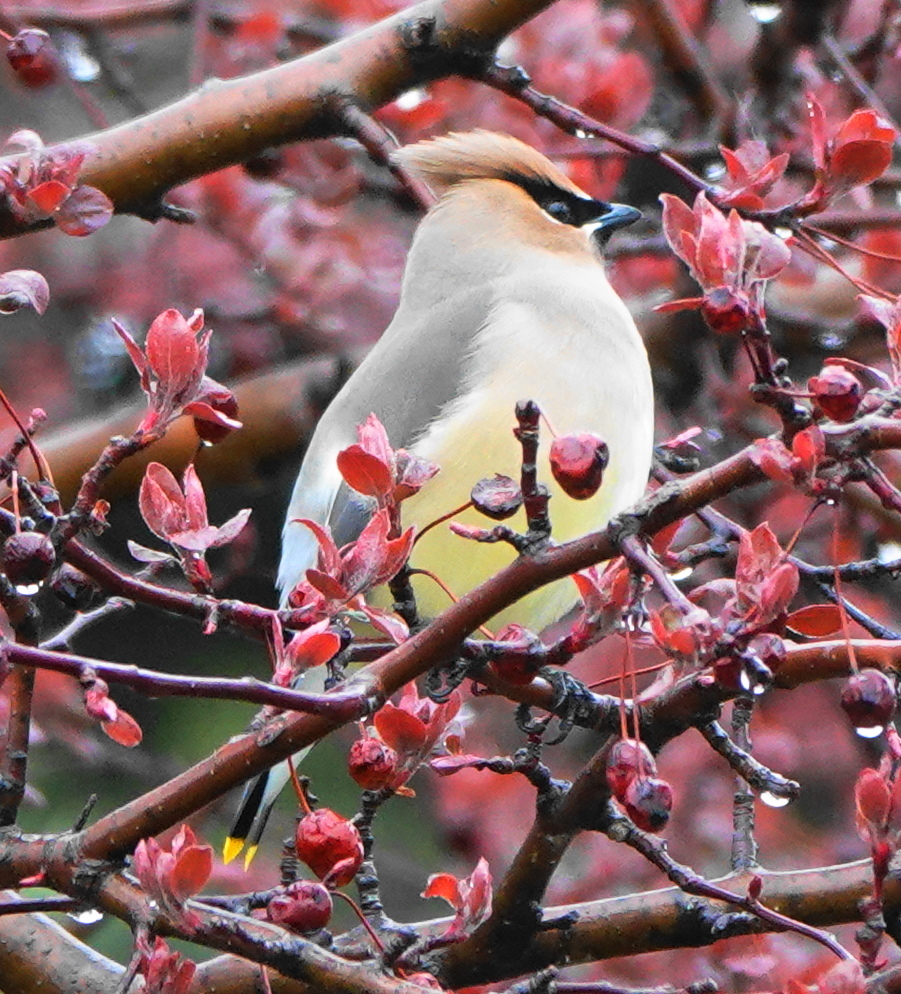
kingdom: Animalia
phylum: Chordata
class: Aves
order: Passeriformes
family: Bombycillidae
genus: Bombycilla
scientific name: Bombycilla cedrorum
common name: Cedar waxwing
